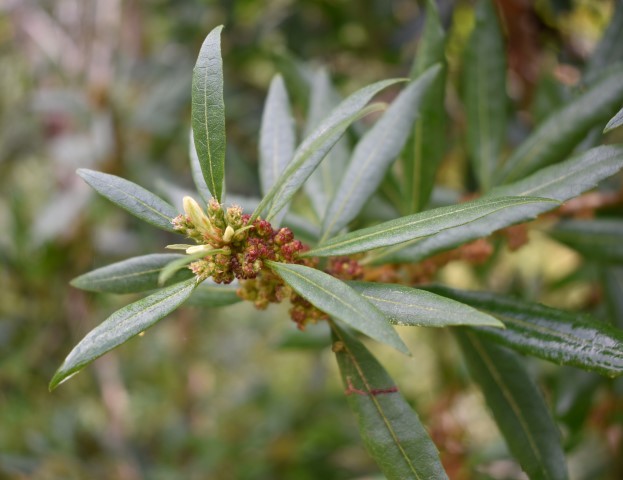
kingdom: Plantae
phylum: Tracheophyta
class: Magnoliopsida
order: Fagales
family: Myricaceae
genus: Morella
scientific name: Morella californica
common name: California wax-myrtle
